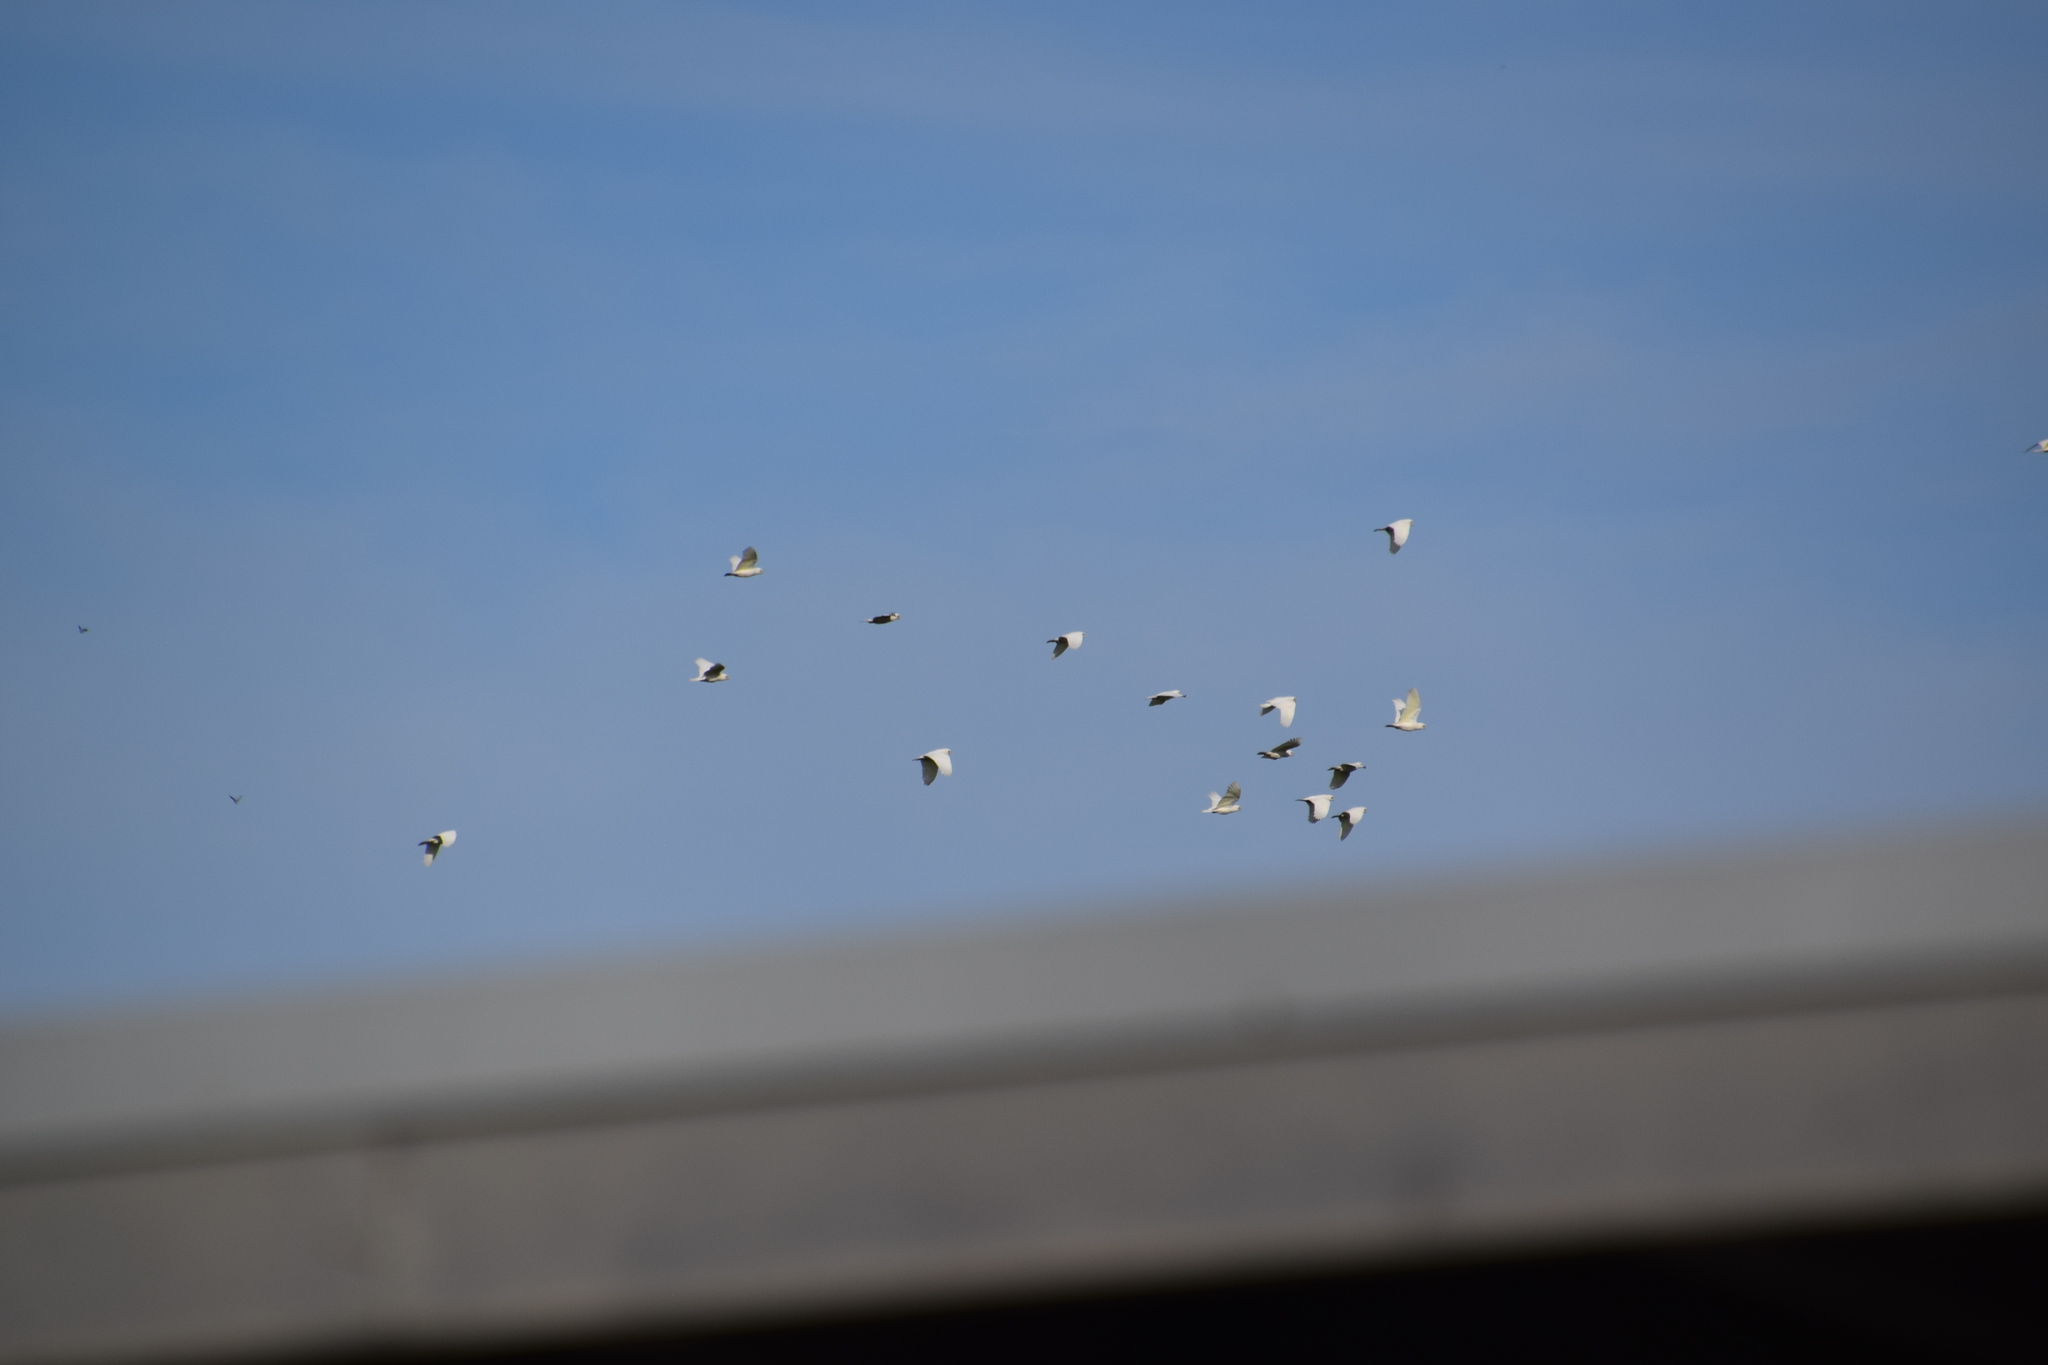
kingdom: Animalia
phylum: Chordata
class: Aves
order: Psittaciformes
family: Psittacidae
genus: Cacatua
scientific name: Cacatua sanguinea
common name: Little corella
